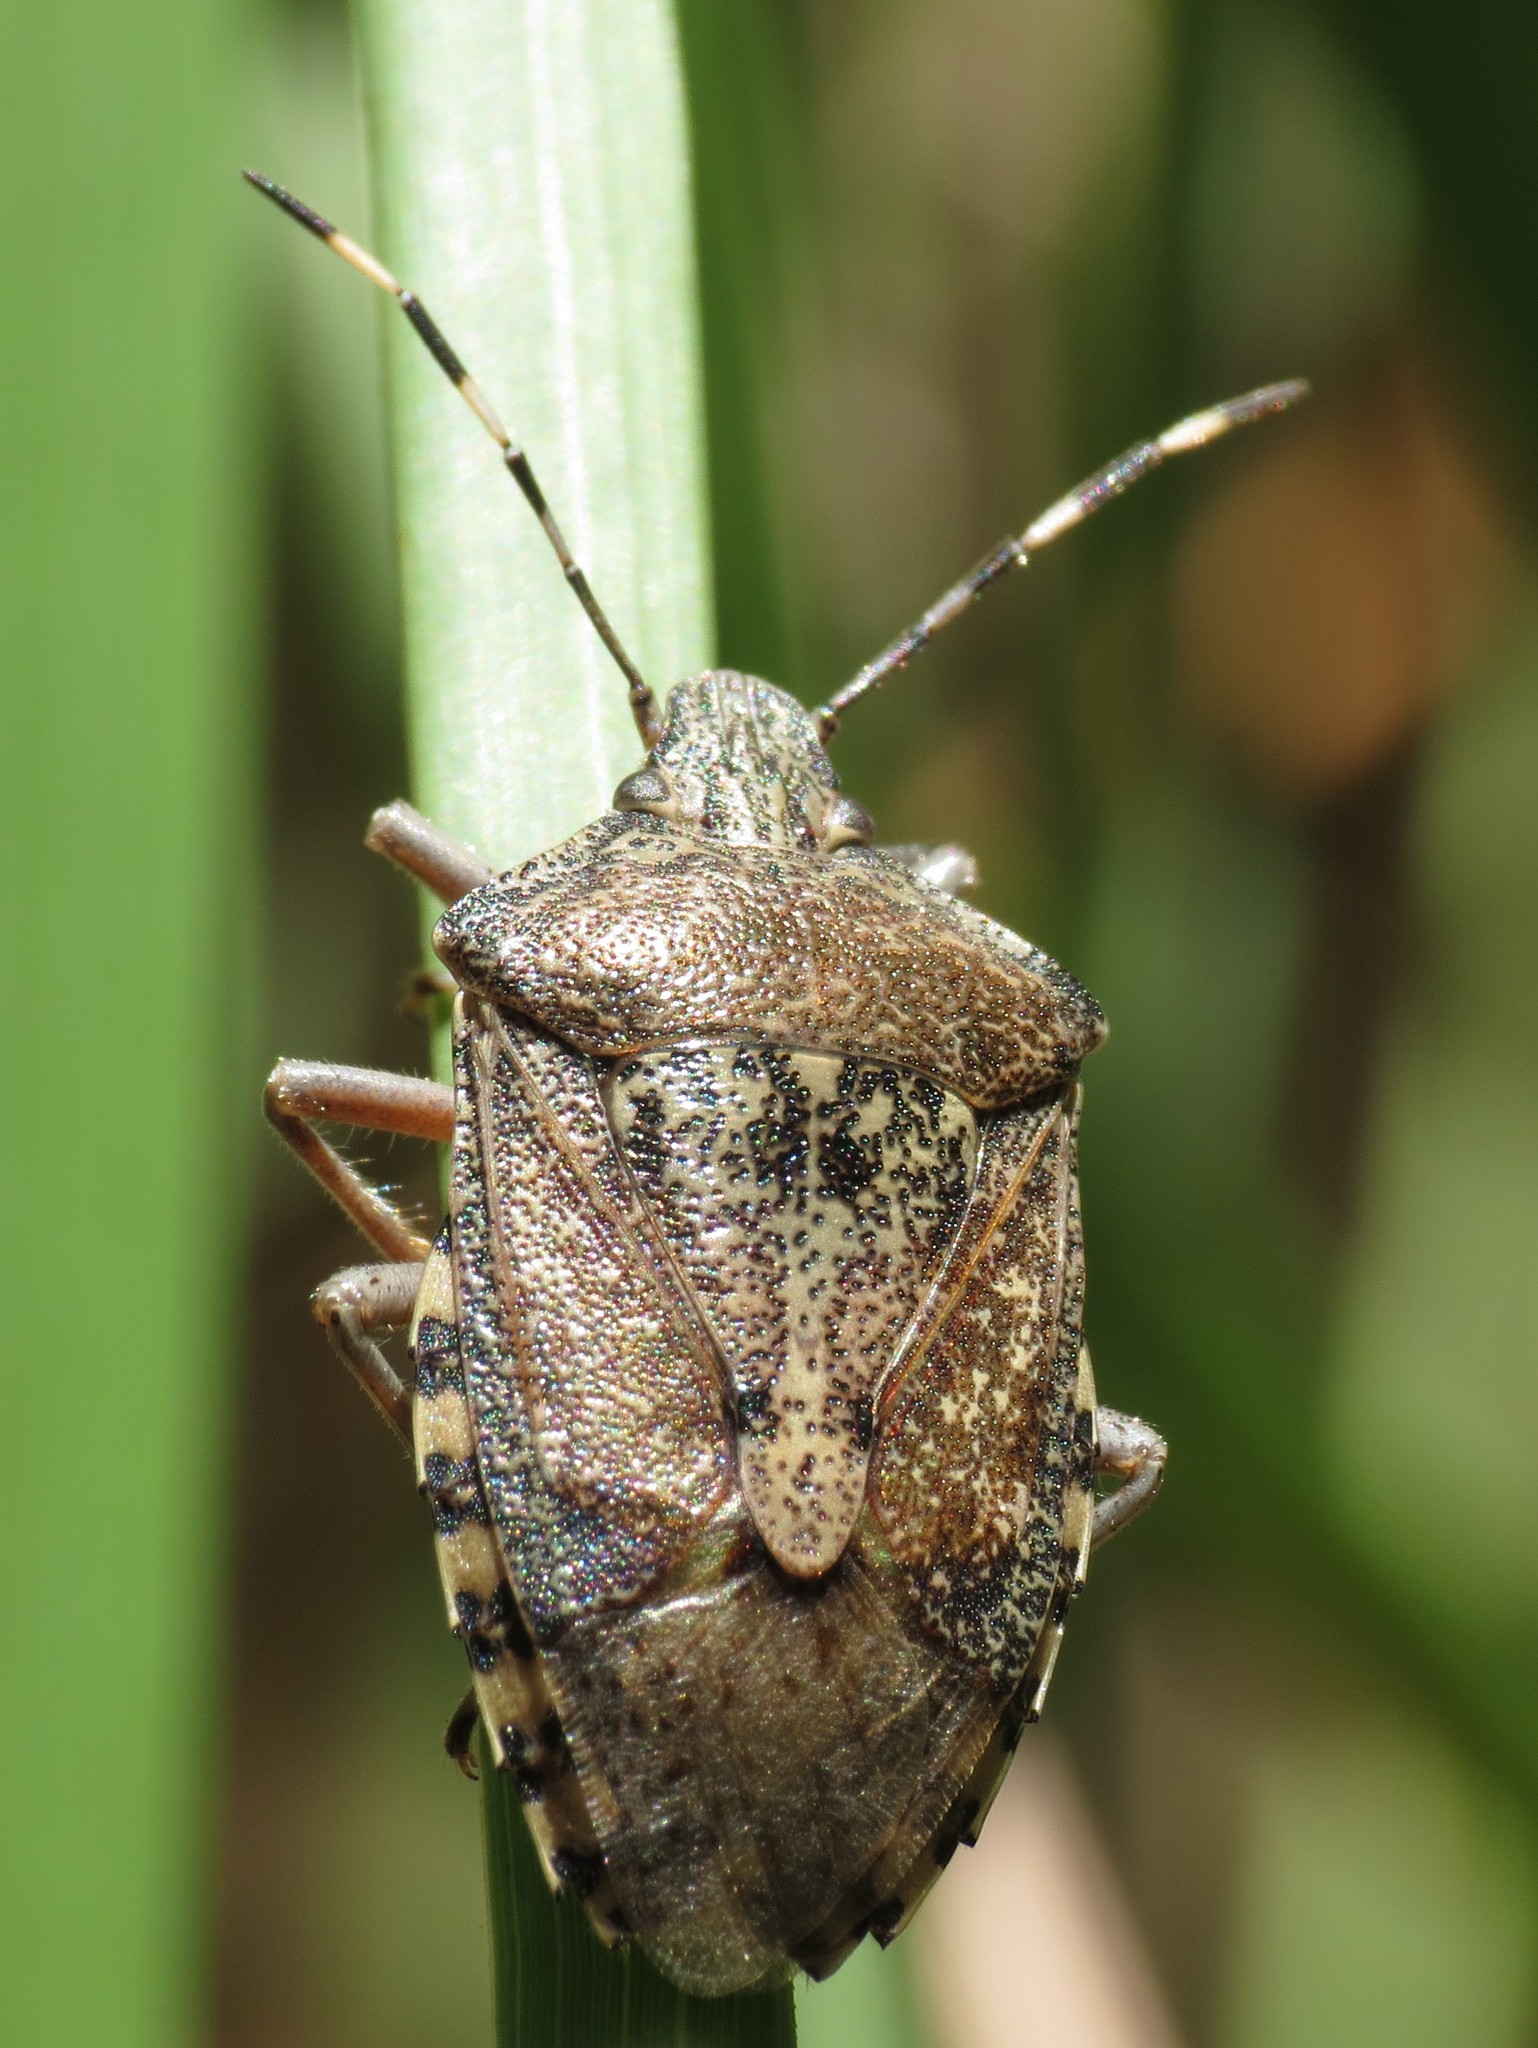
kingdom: Animalia
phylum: Arthropoda
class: Insecta
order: Hemiptera
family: Pentatomidae
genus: Rhaphigaster
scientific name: Rhaphigaster nebulosa
